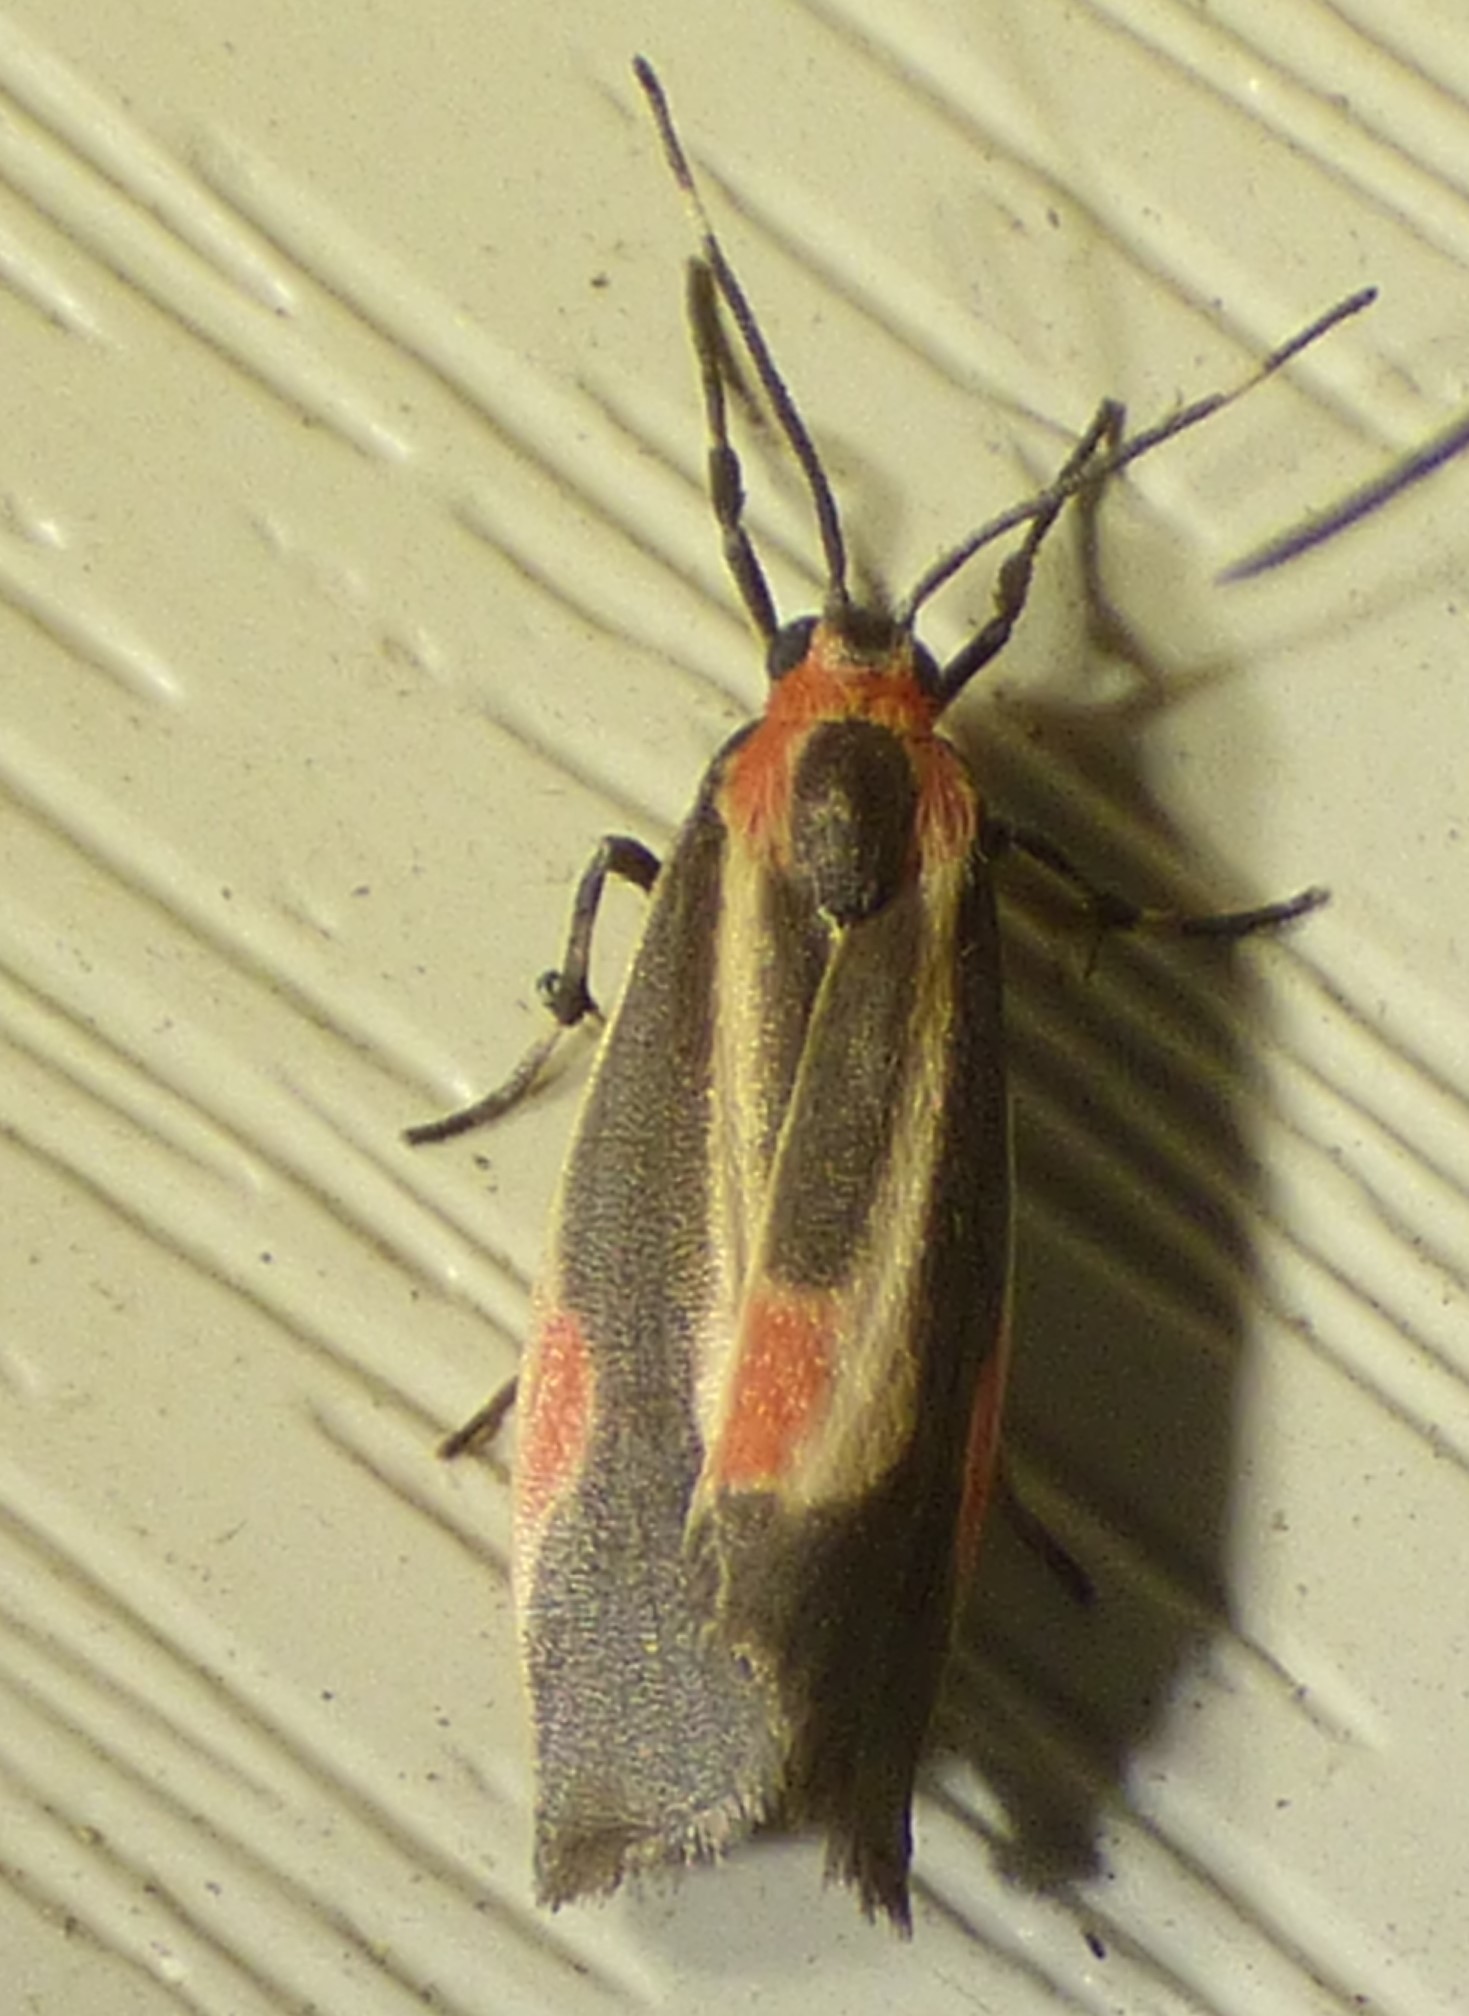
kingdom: Animalia
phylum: Arthropoda
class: Insecta
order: Lepidoptera
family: Erebidae
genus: Cisthene
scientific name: Cisthene packardii
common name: Packard's lichen moth
